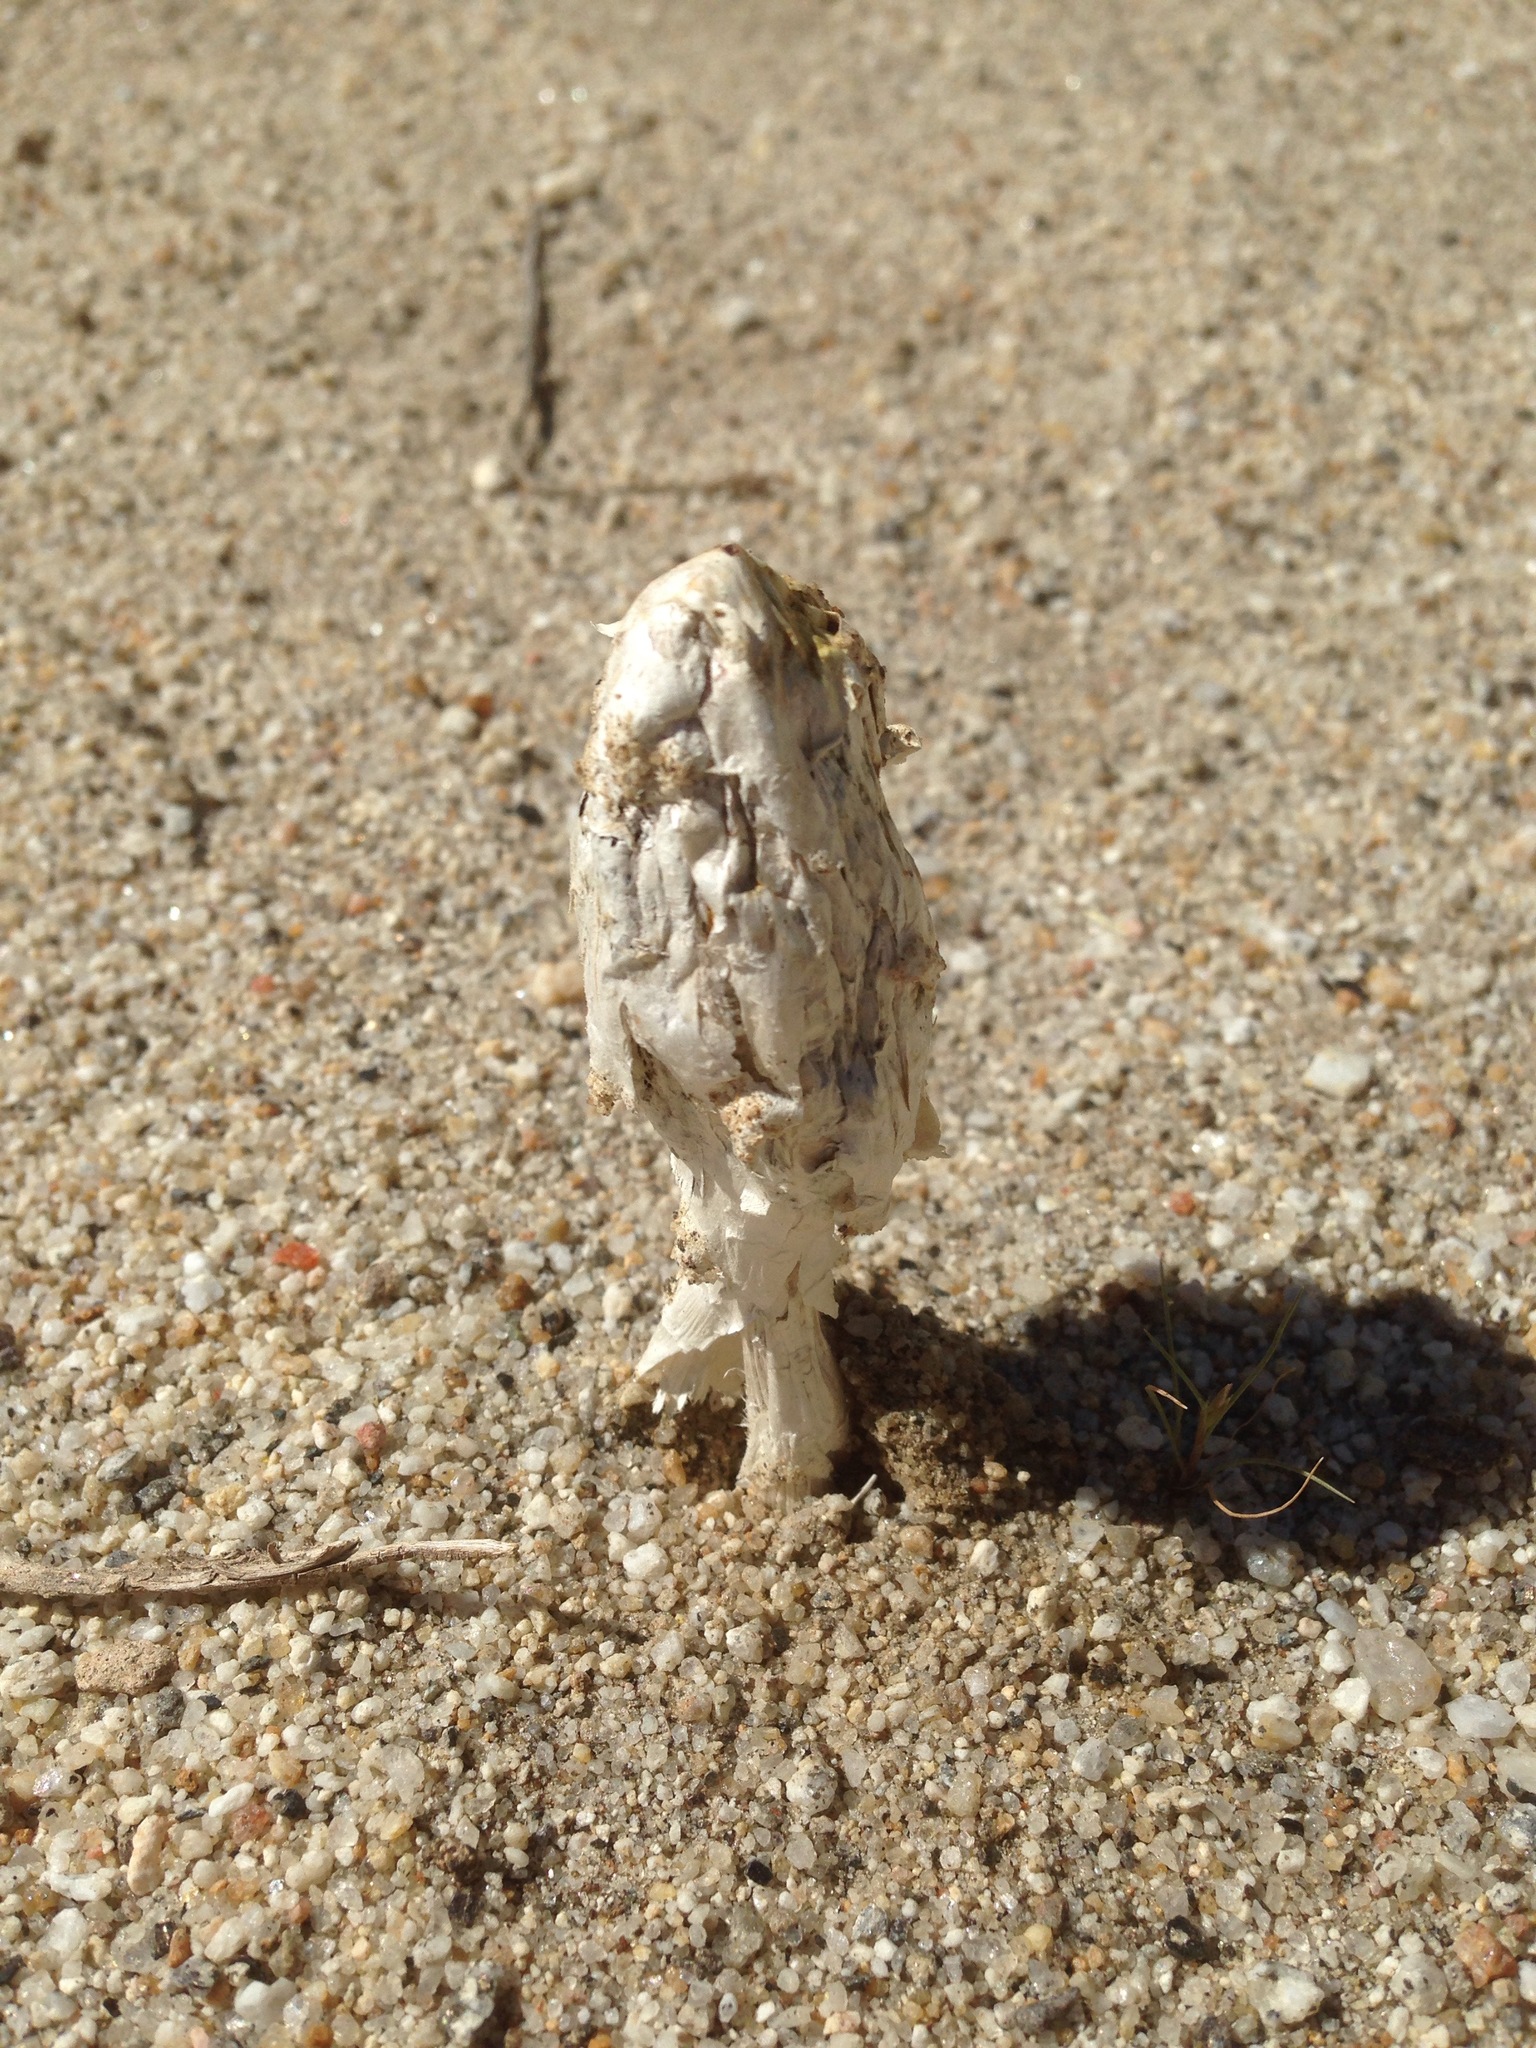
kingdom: Fungi
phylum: Basidiomycota
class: Agaricomycetes
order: Agaricales
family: Agaricaceae
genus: Podaxis
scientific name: Podaxis pistillaris
